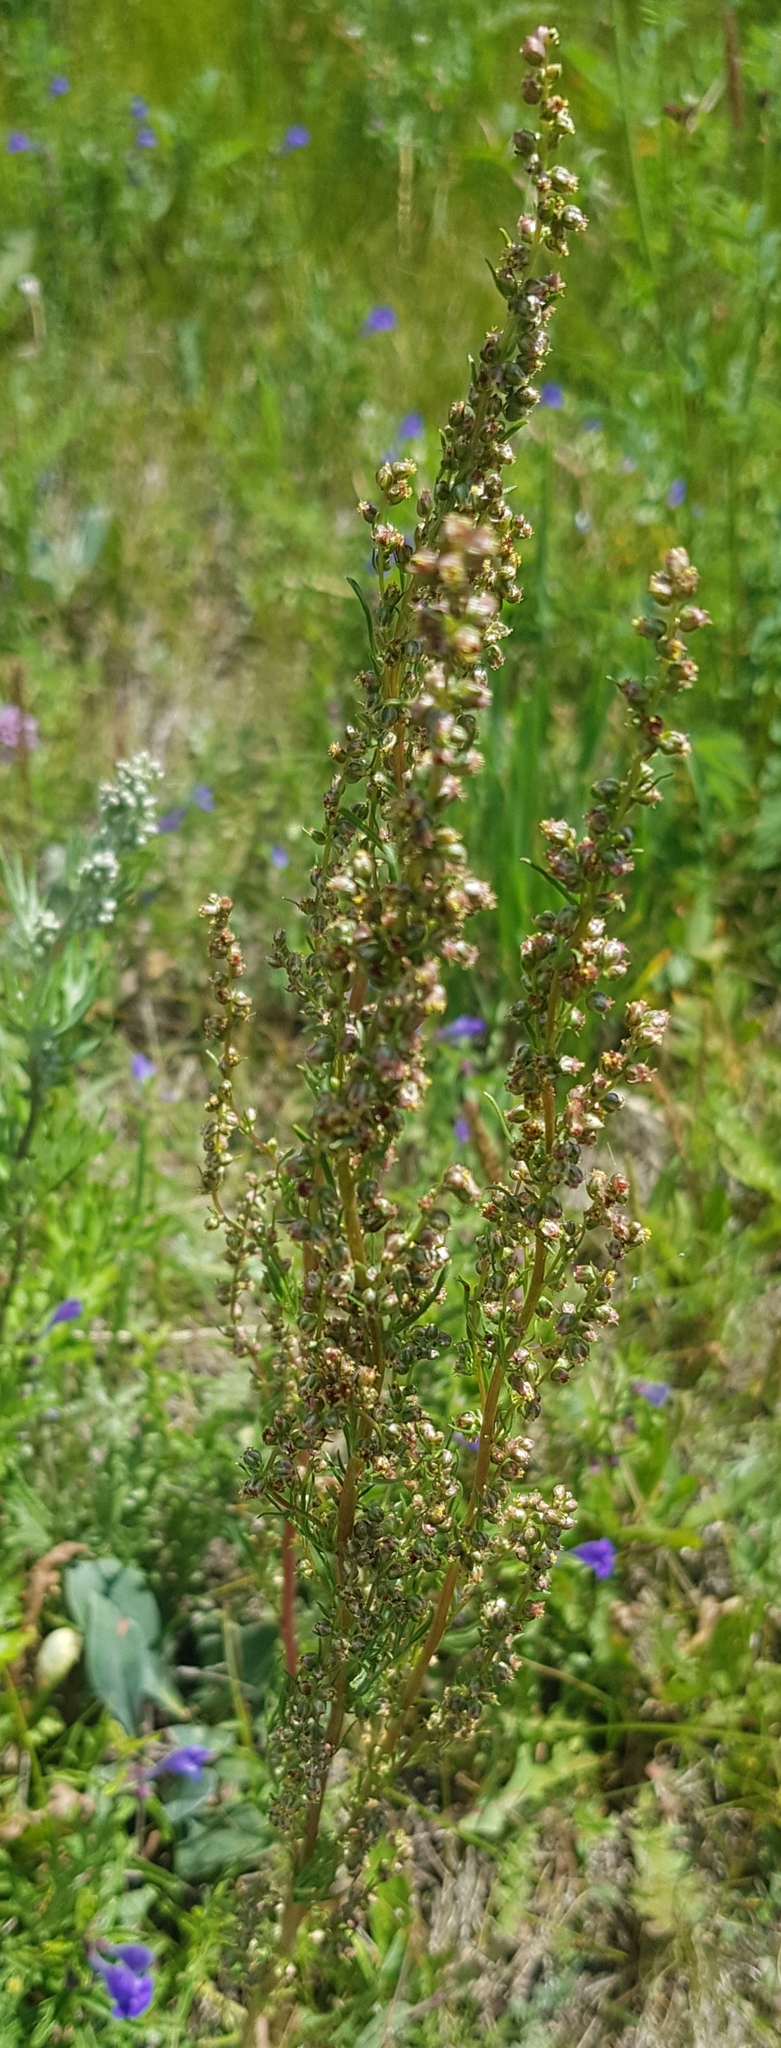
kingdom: Plantae
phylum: Tracheophyta
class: Magnoliopsida
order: Asterales
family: Asteraceae
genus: Artemisia
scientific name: Artemisia scoparia
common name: Redstem wormwood
